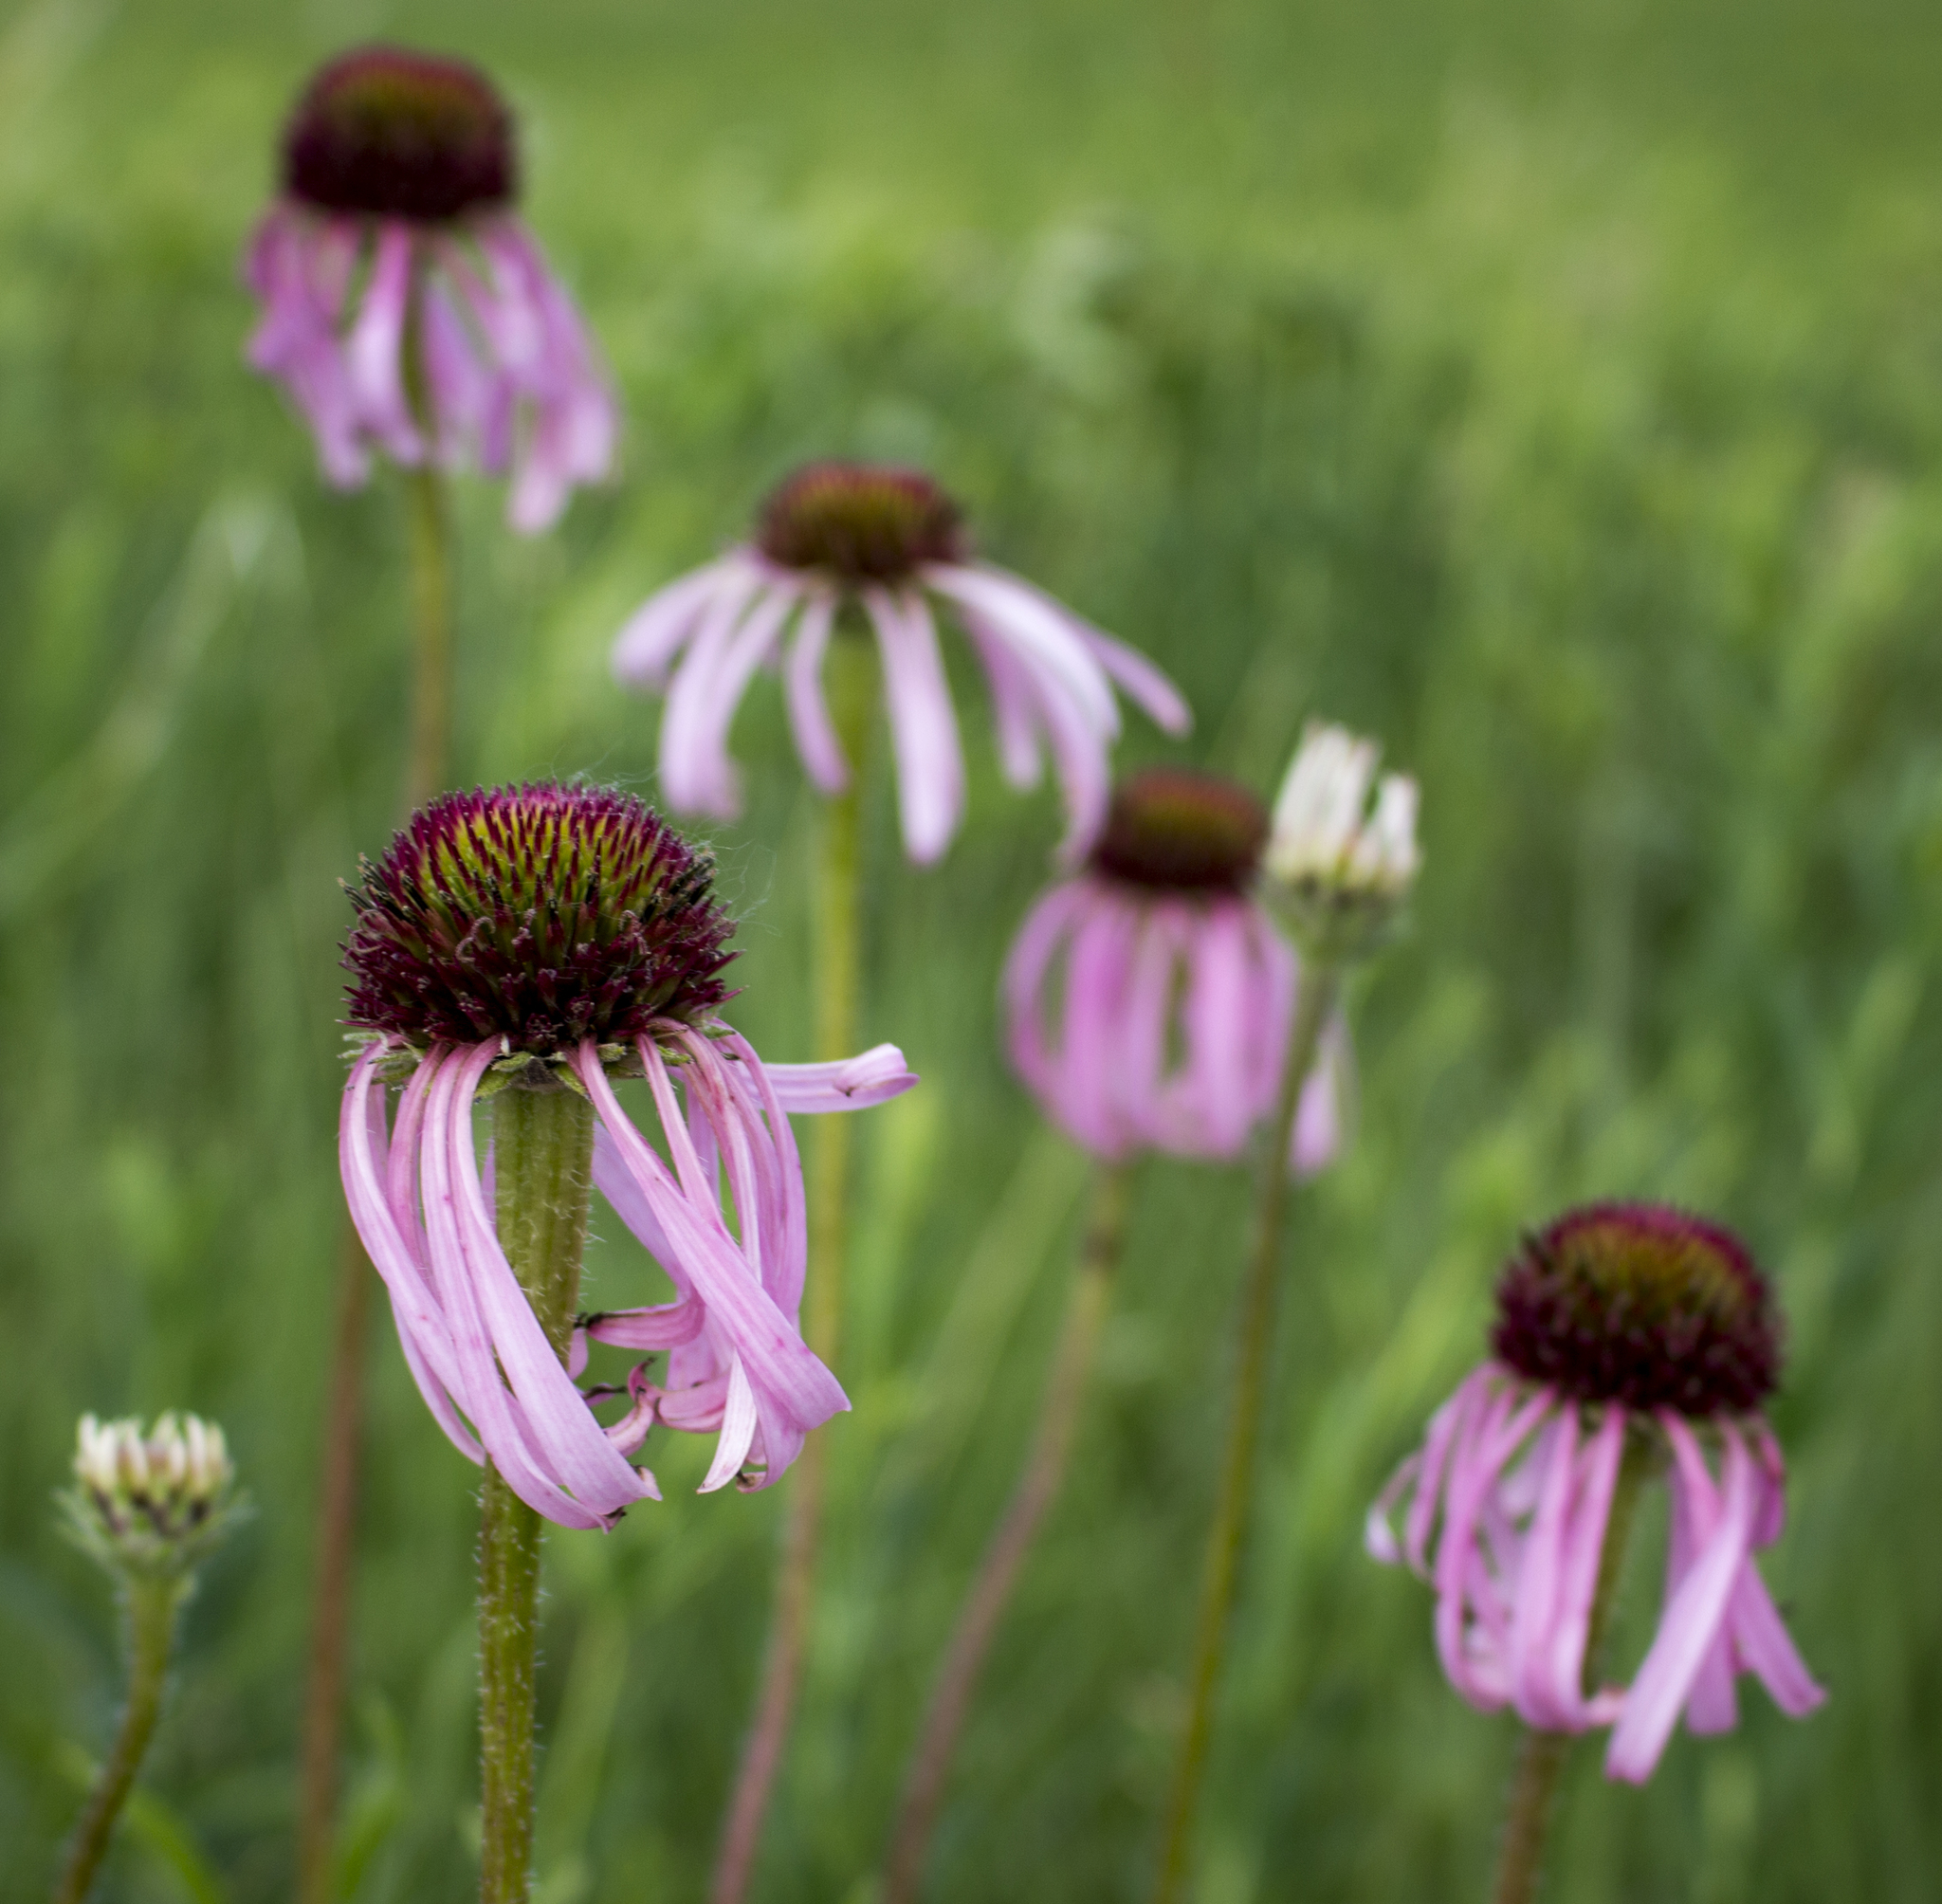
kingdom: Plantae
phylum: Tracheophyta
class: Magnoliopsida
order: Asterales
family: Asteraceae
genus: Echinacea
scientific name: Echinacea pallida
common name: Pale echinacea
